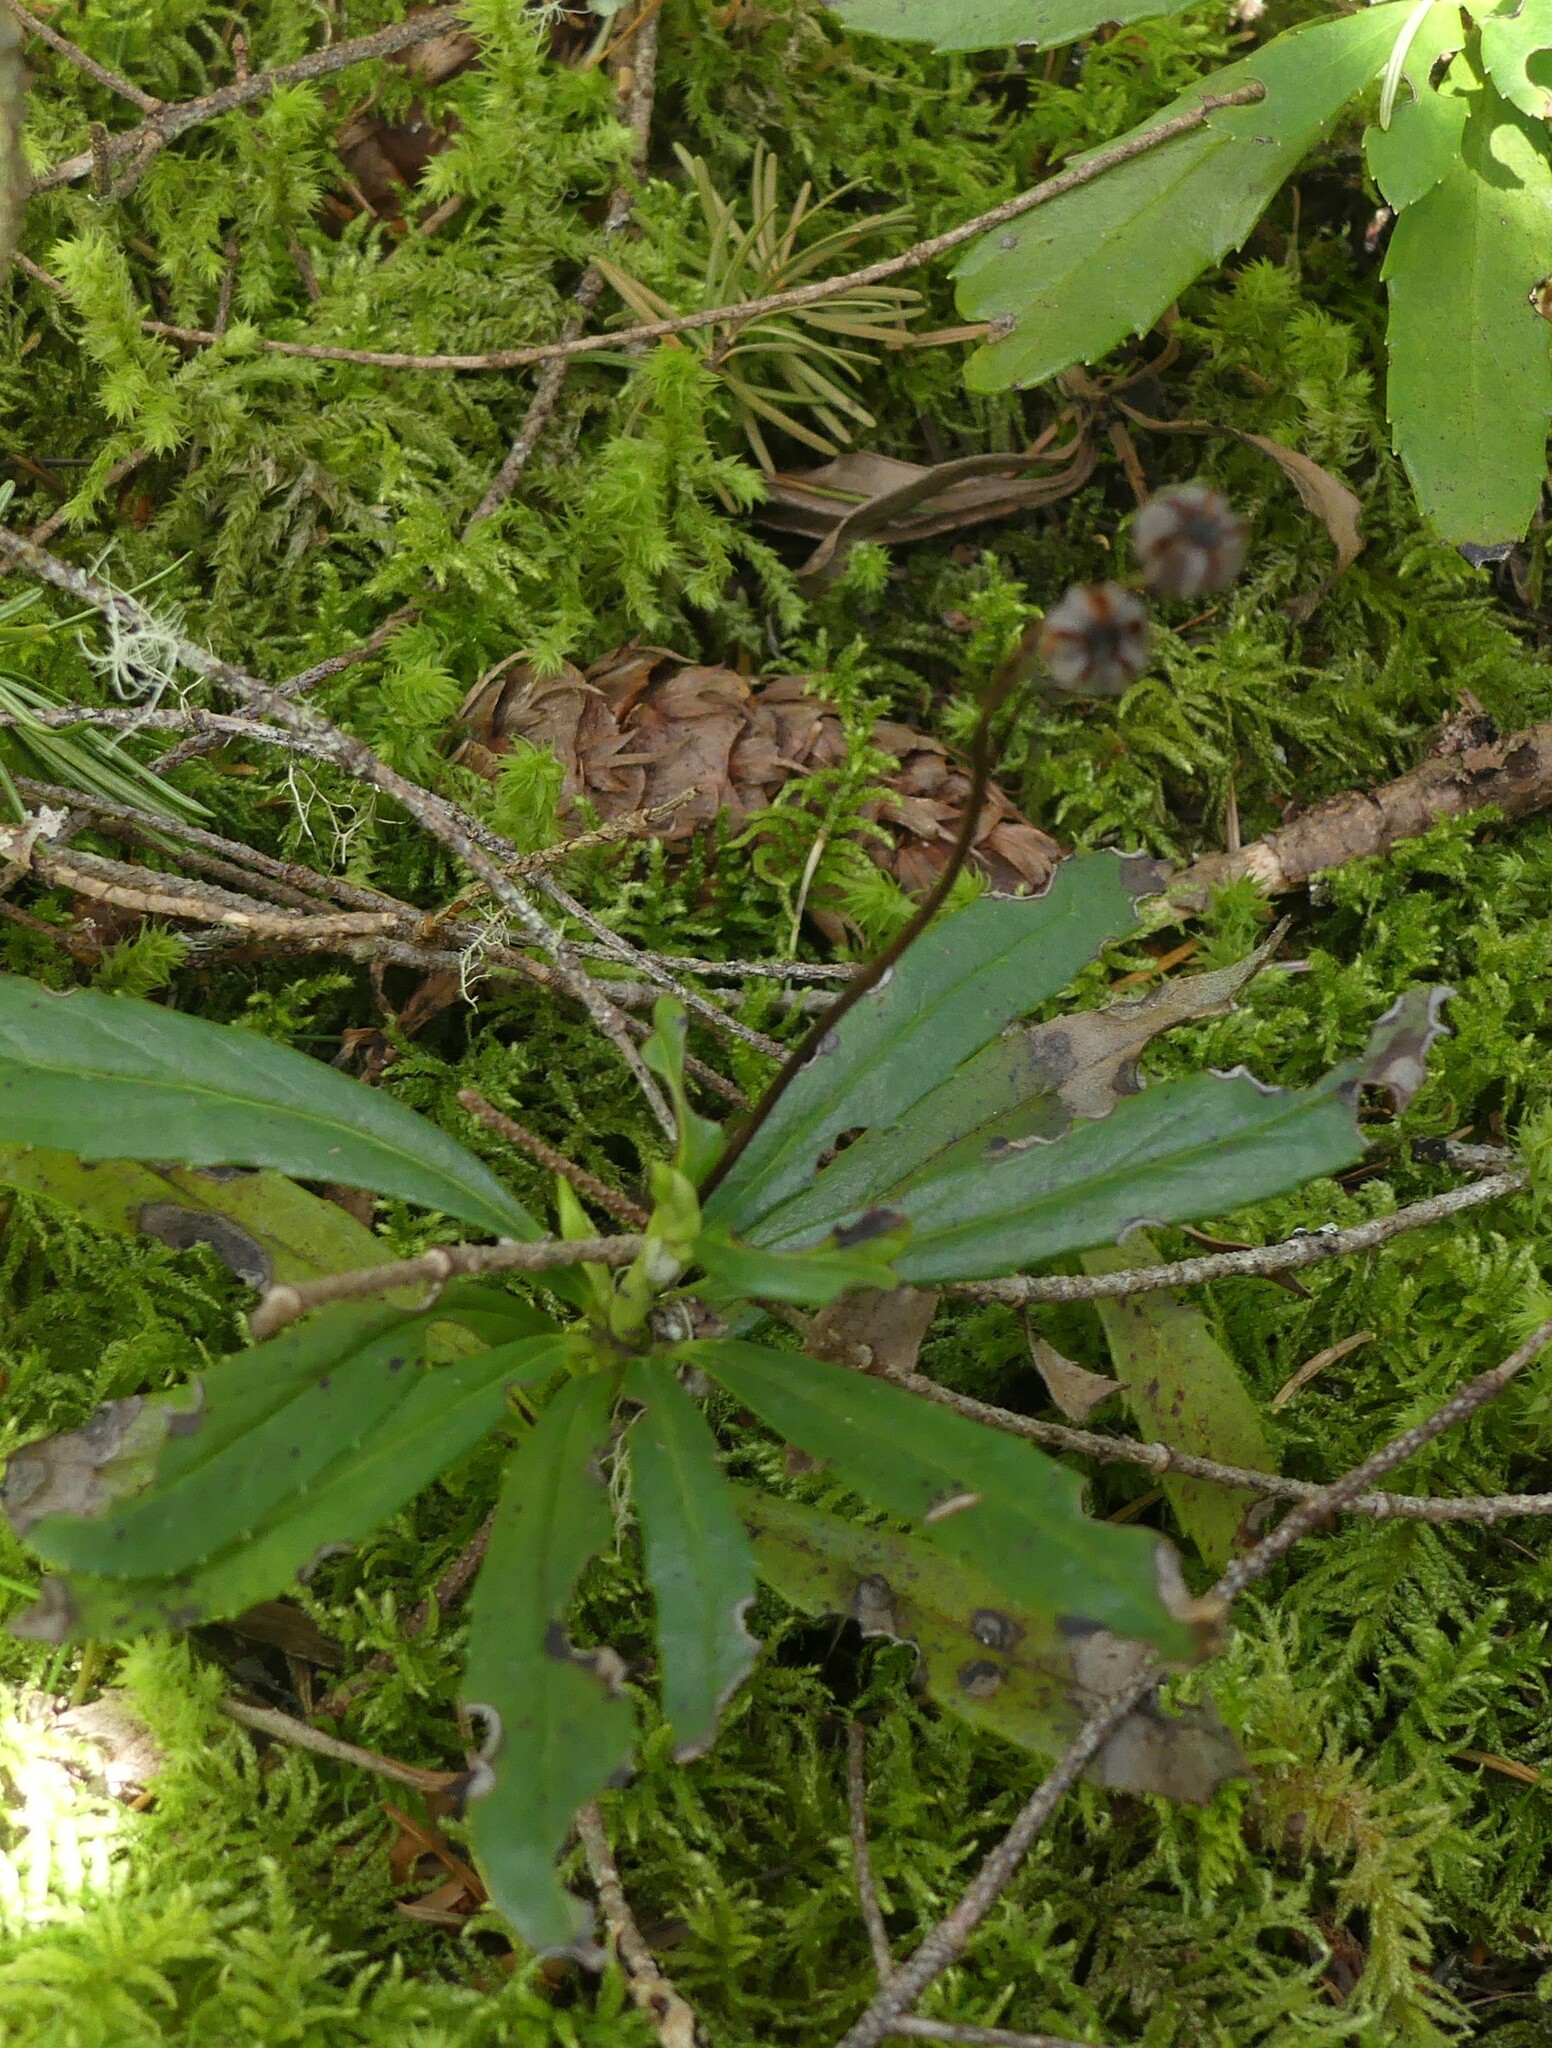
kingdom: Plantae
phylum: Tracheophyta
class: Magnoliopsida
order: Ericales
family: Ericaceae
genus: Chimaphila
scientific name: Chimaphila umbellata
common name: Pipsissewa
